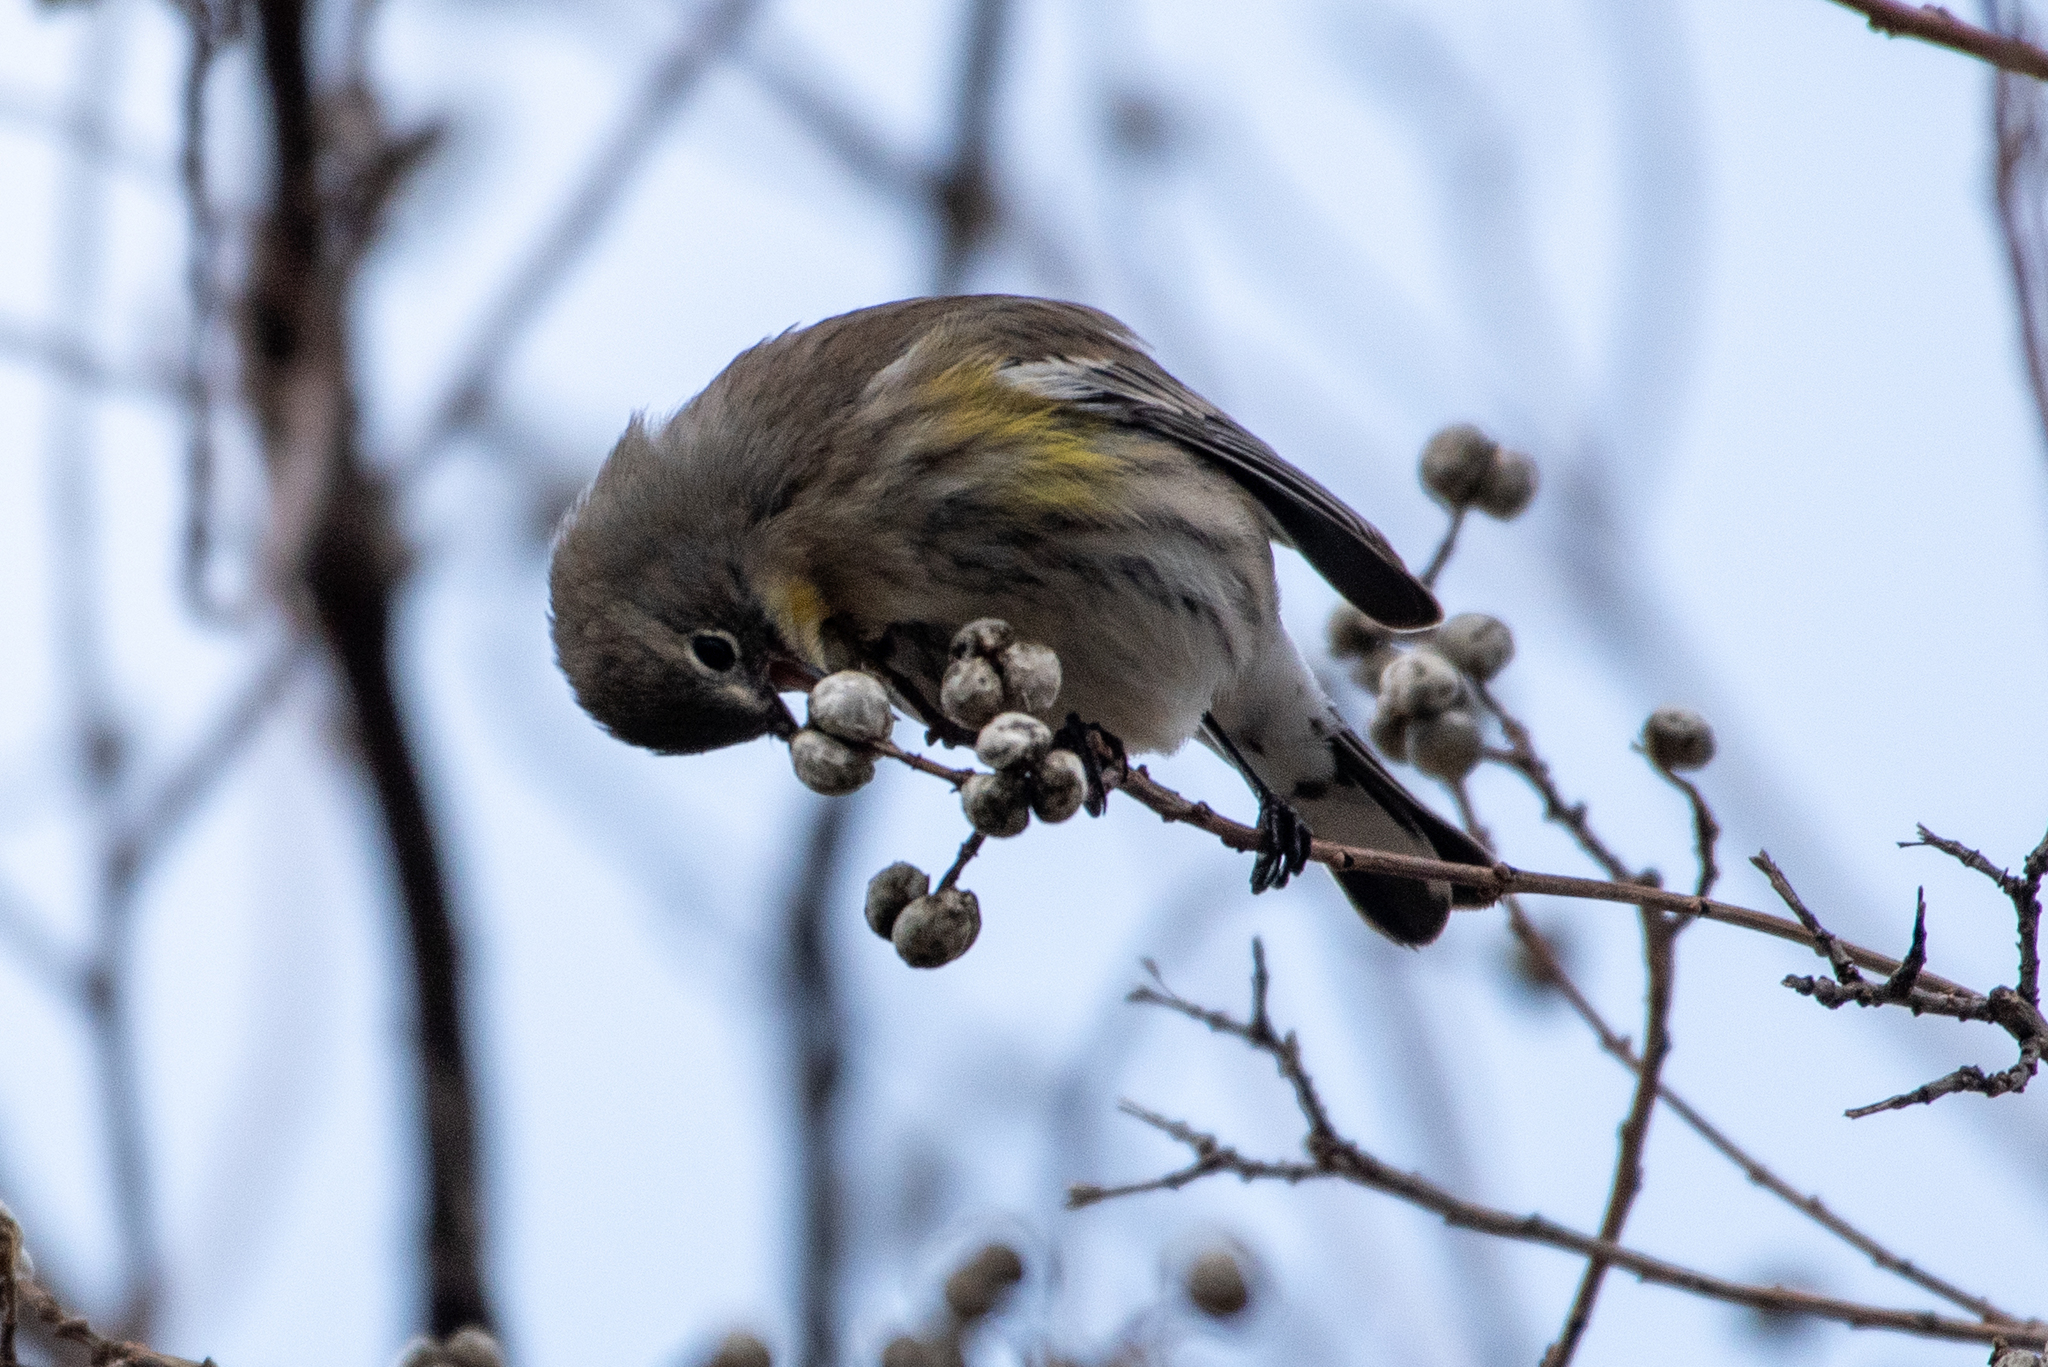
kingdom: Animalia
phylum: Chordata
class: Aves
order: Passeriformes
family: Parulidae
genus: Setophaga
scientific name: Setophaga coronata
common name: Myrtle warbler
